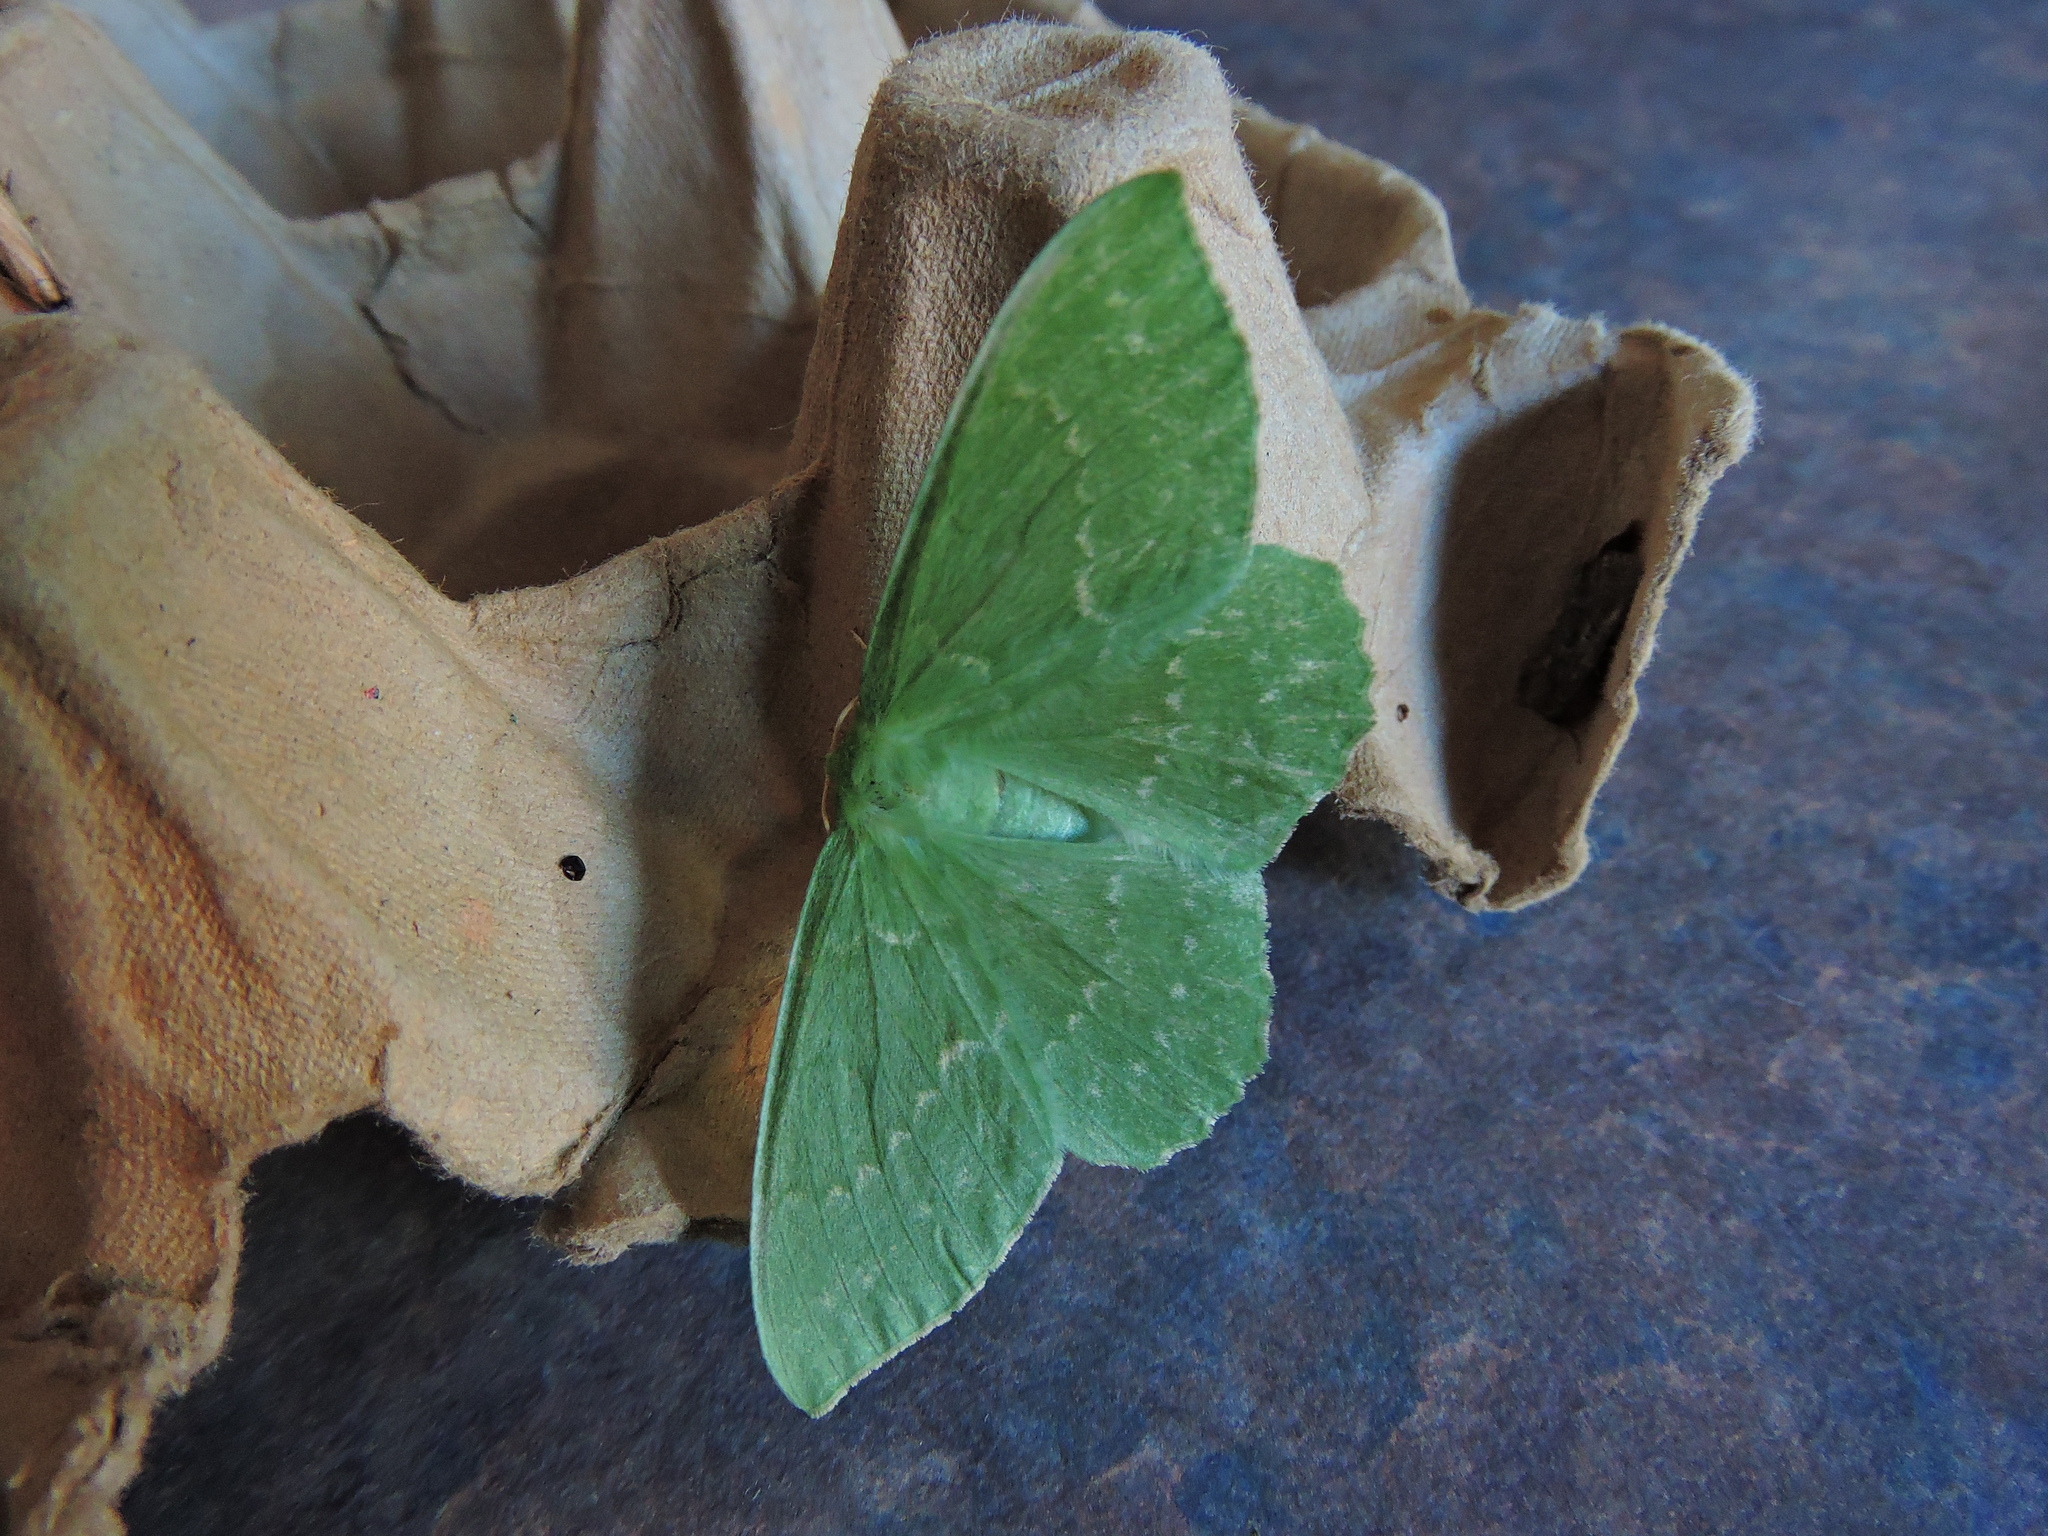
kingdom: Animalia
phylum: Arthropoda
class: Insecta
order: Lepidoptera
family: Geometridae
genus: Geometra
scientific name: Geometra papilionaria
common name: Large emerald
